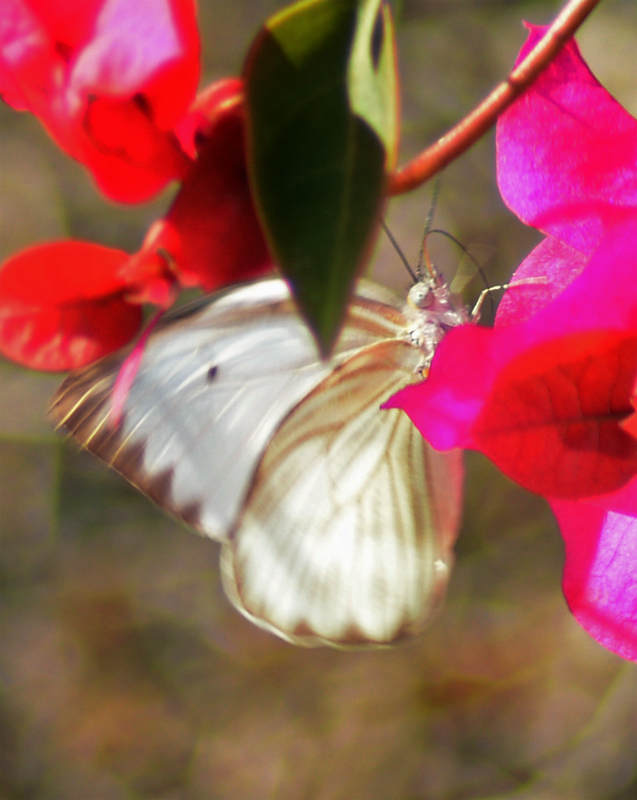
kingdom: Animalia
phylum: Arthropoda
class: Insecta
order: Lepidoptera
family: Pieridae
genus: Ascia
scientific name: Ascia monuste
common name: Great southern white
